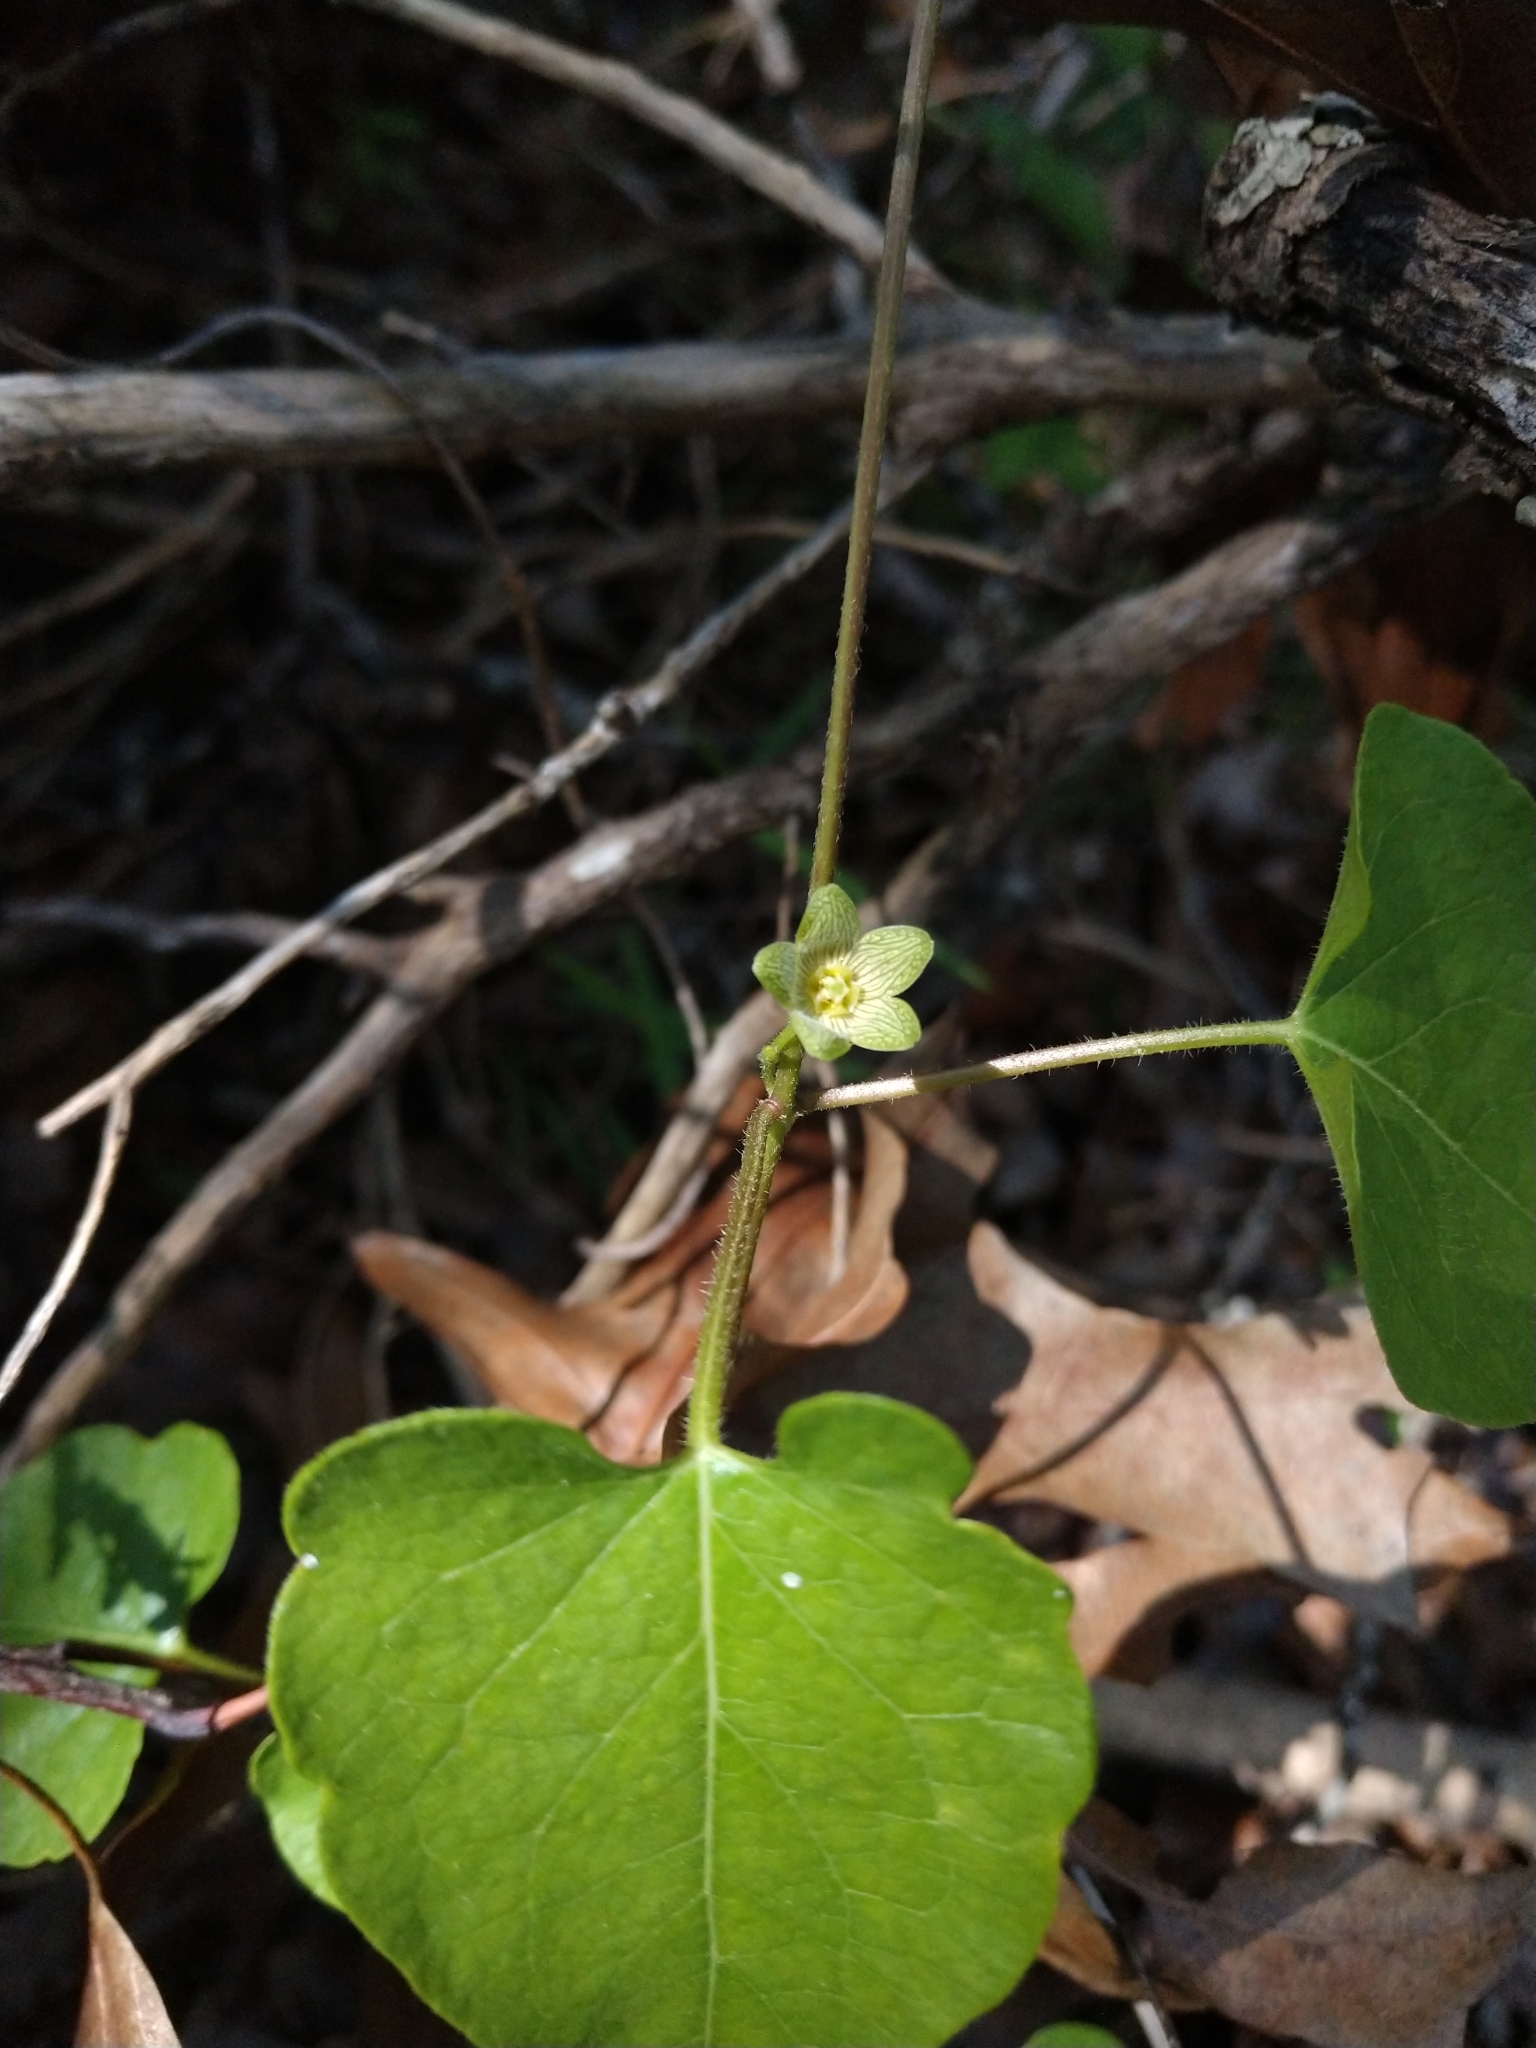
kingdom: Plantae
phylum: Tracheophyta
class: Magnoliopsida
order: Gentianales
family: Apocynaceae
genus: Matelea
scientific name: Matelea edwardsensis
